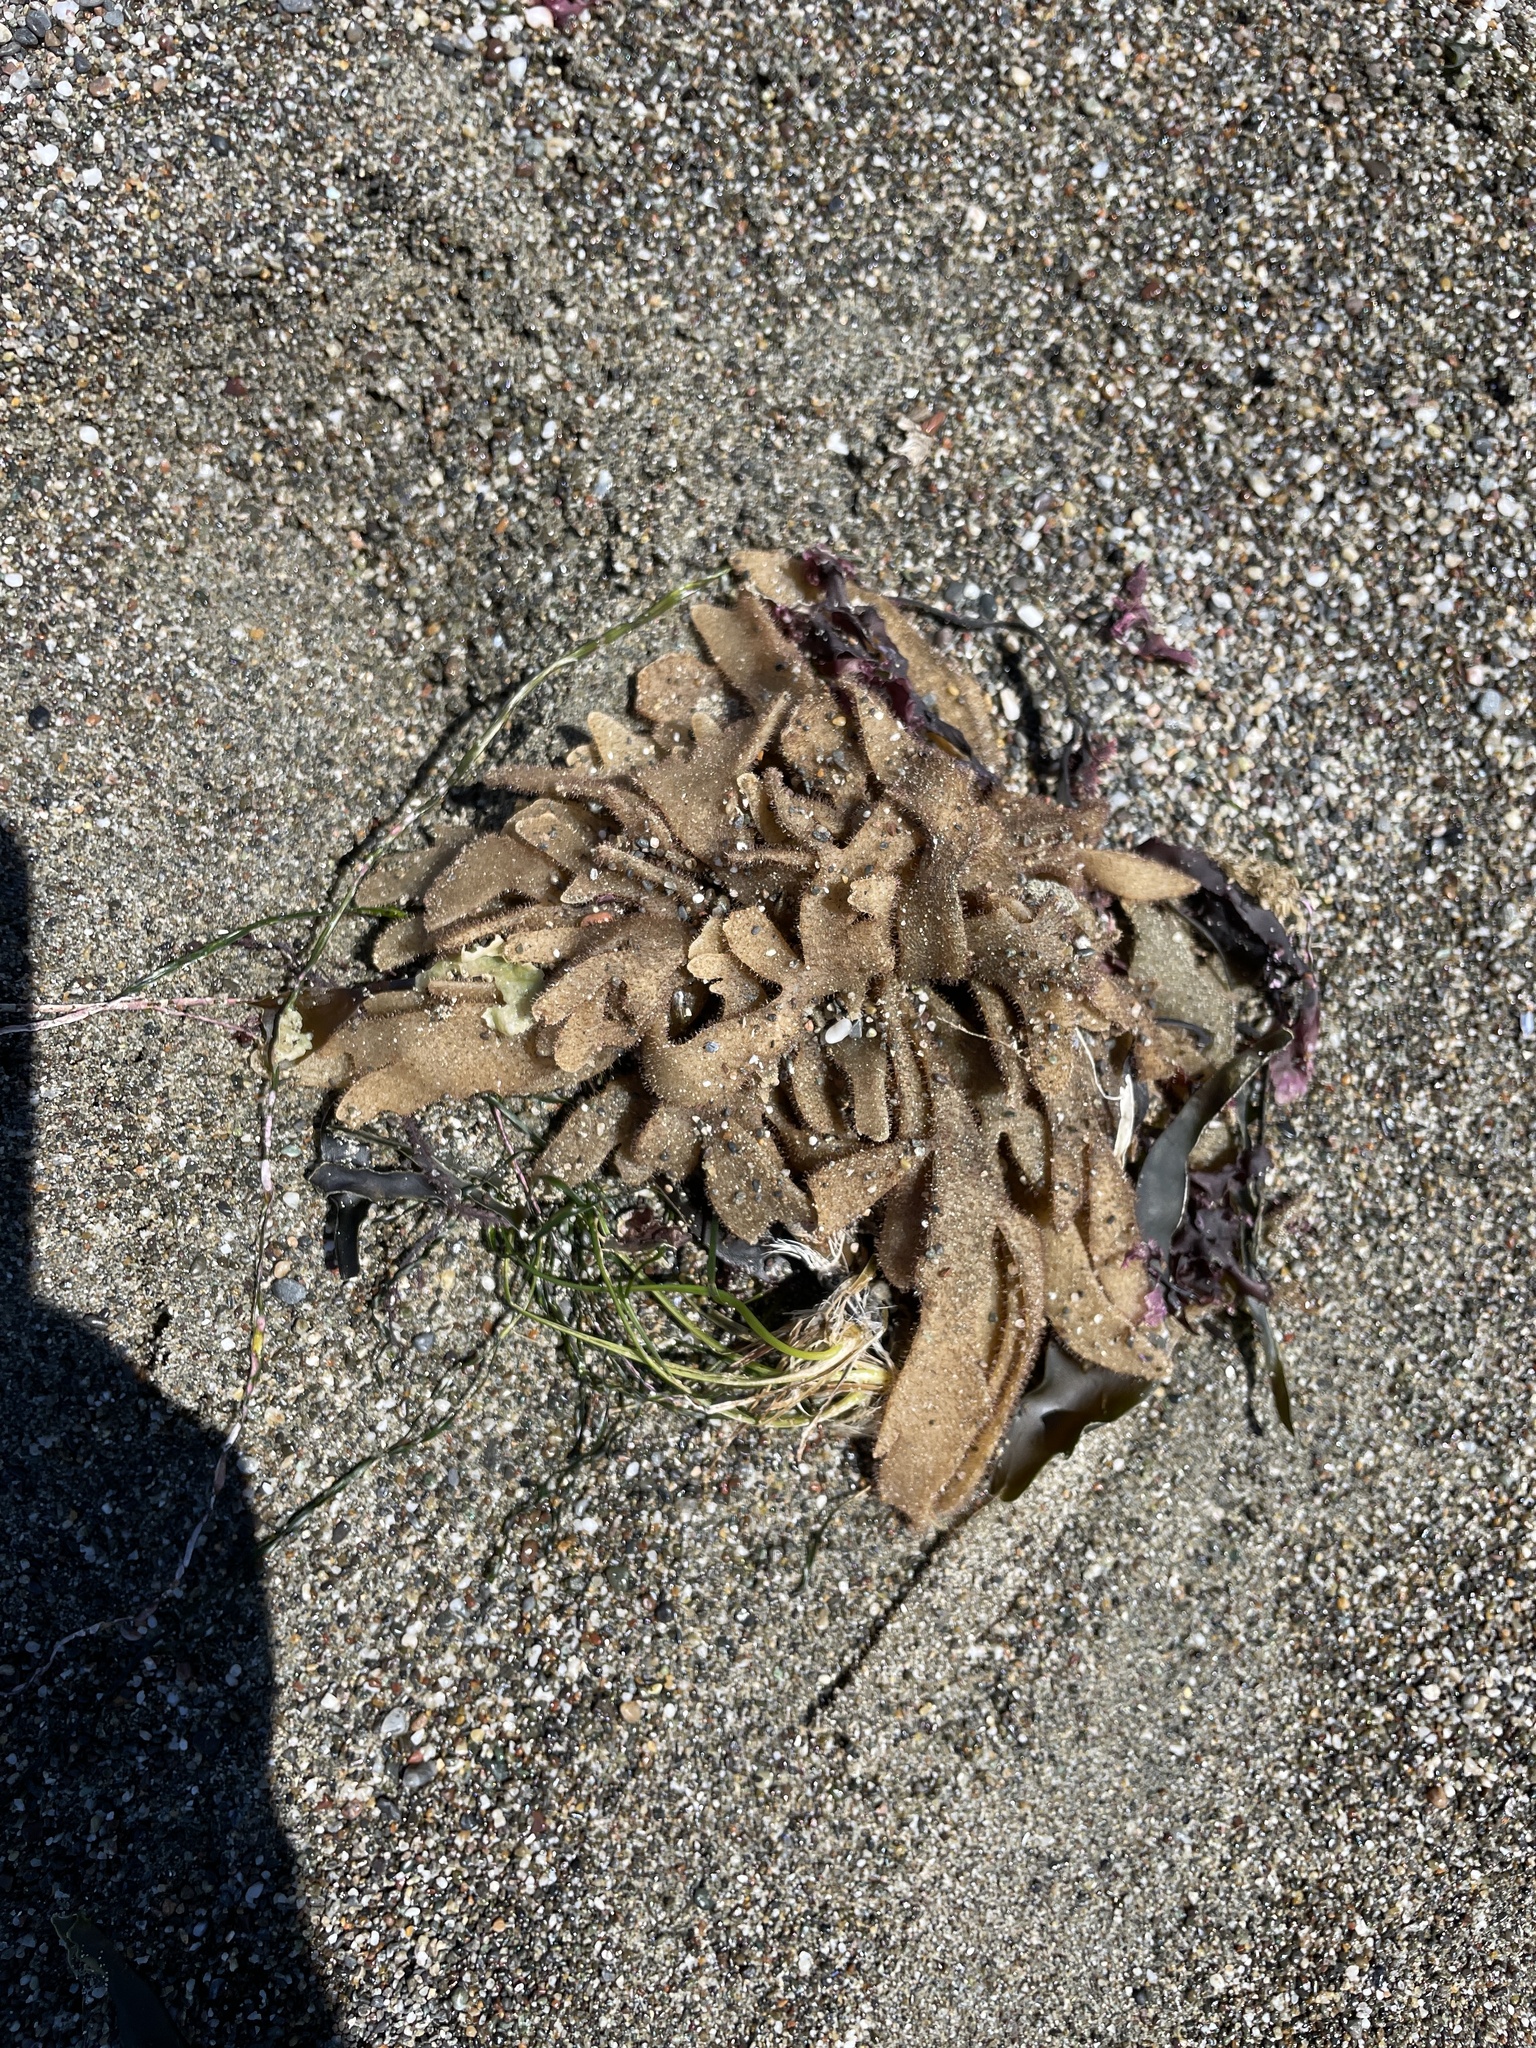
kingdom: Animalia
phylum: Bryozoa
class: Gymnolaemata
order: Ctenostomatida
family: Flustrellidridae
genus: Flustrellidra
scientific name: Flustrellidra corniculata
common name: Spiny leather bryozoan
